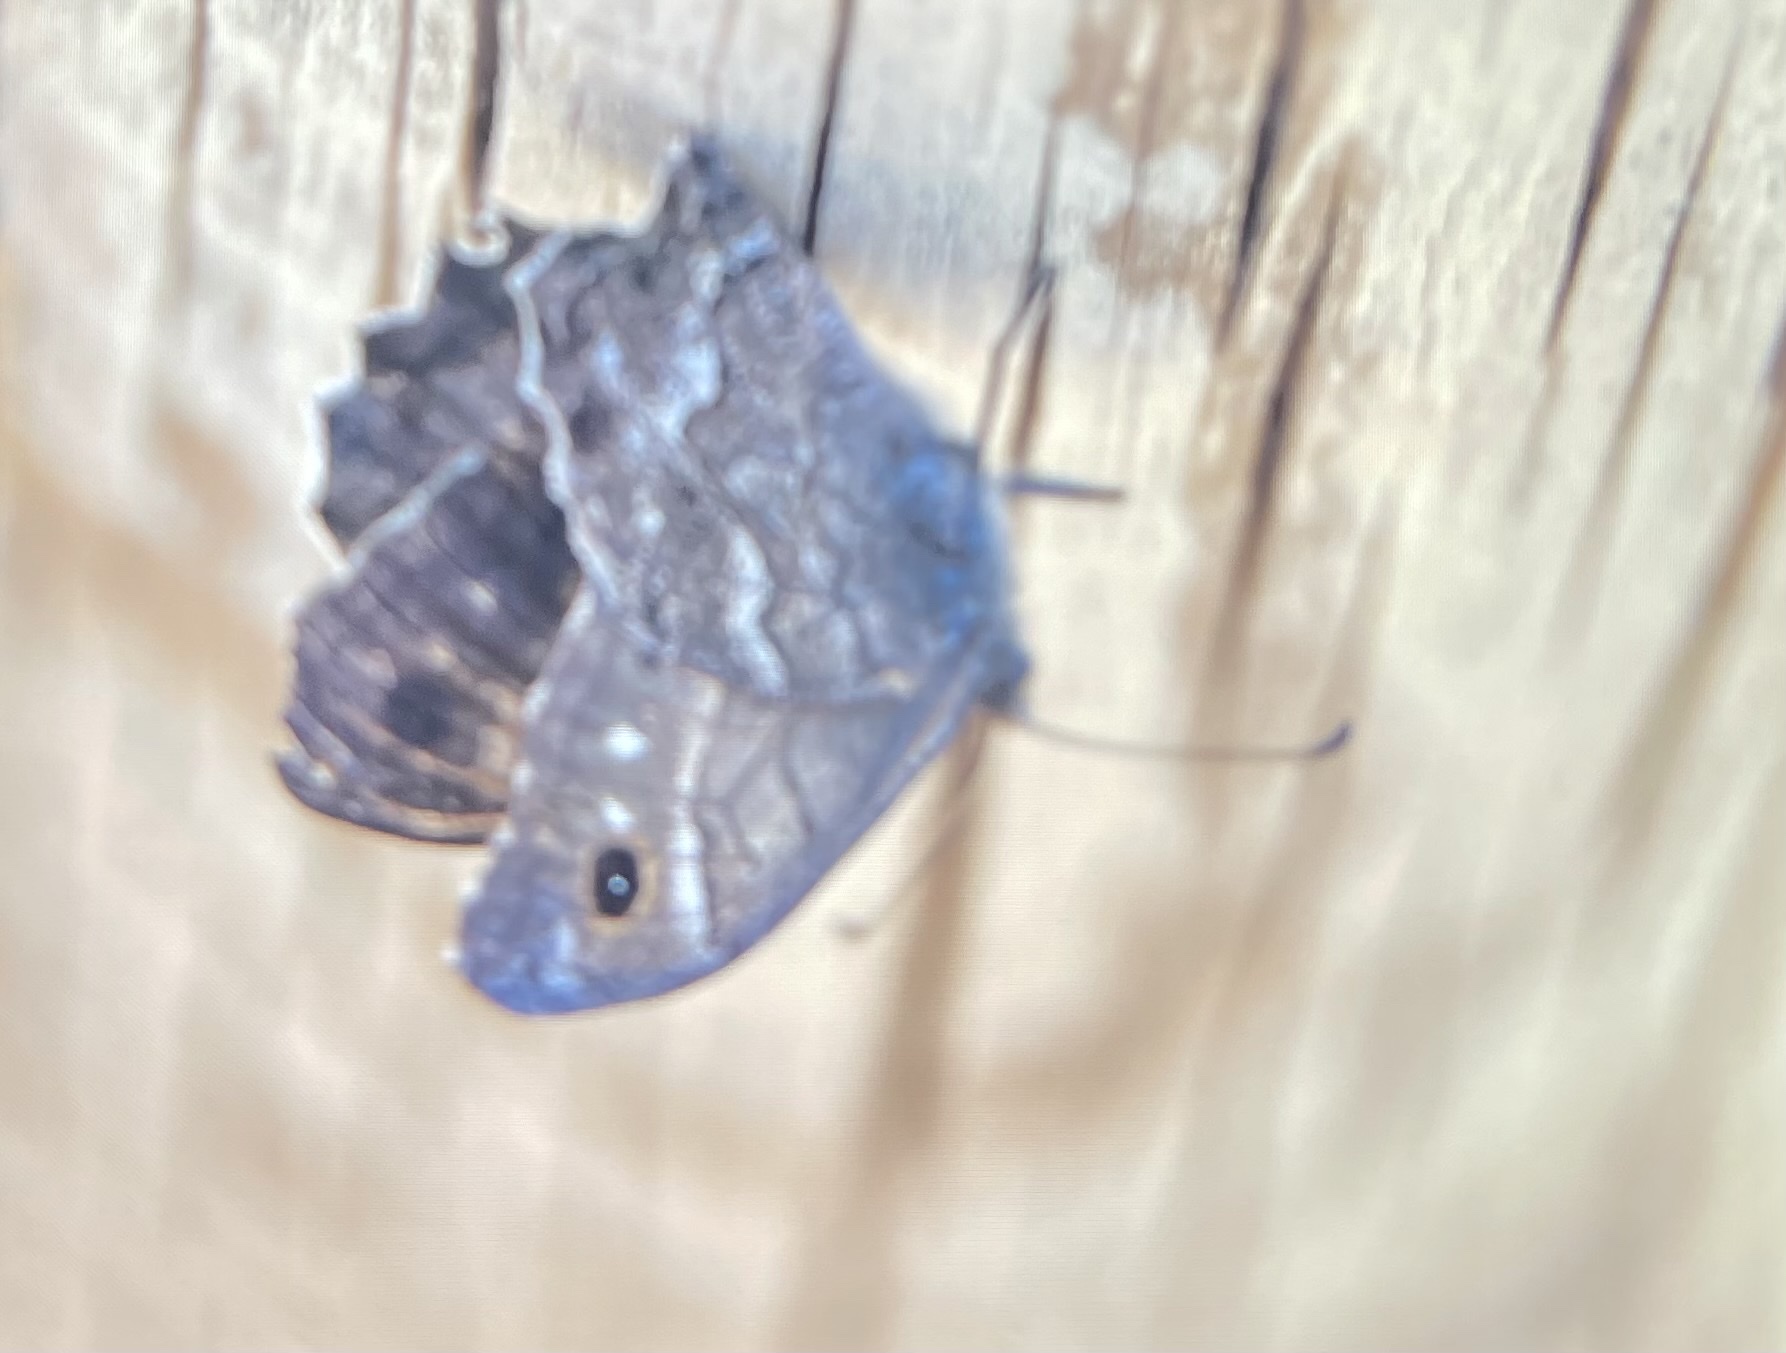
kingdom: Animalia
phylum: Arthropoda
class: Insecta
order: Lepidoptera
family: Nymphalidae
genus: Hipparchia
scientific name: Hipparchia tamadabae
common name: Gran canaria grayling
